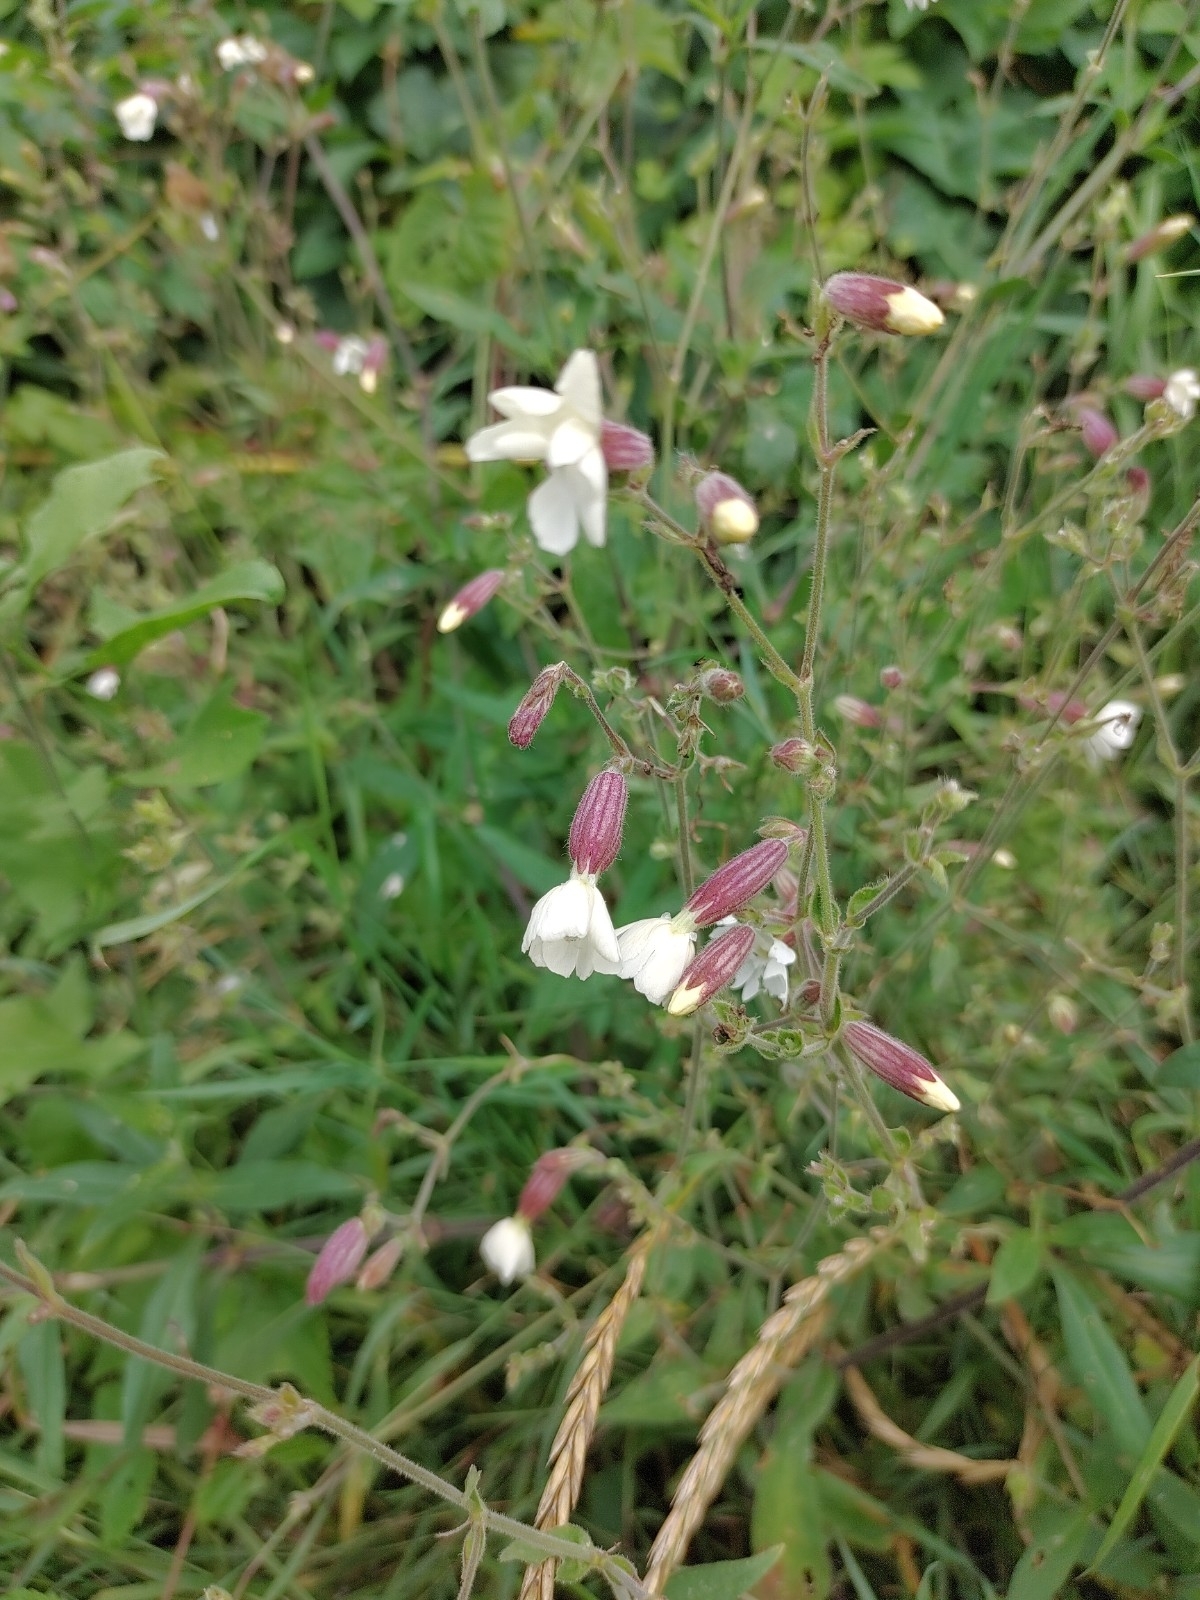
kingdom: Plantae
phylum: Tracheophyta
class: Magnoliopsida
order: Caryophyllales
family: Caryophyllaceae
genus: Silene
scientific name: Silene latifolia
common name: White campion
